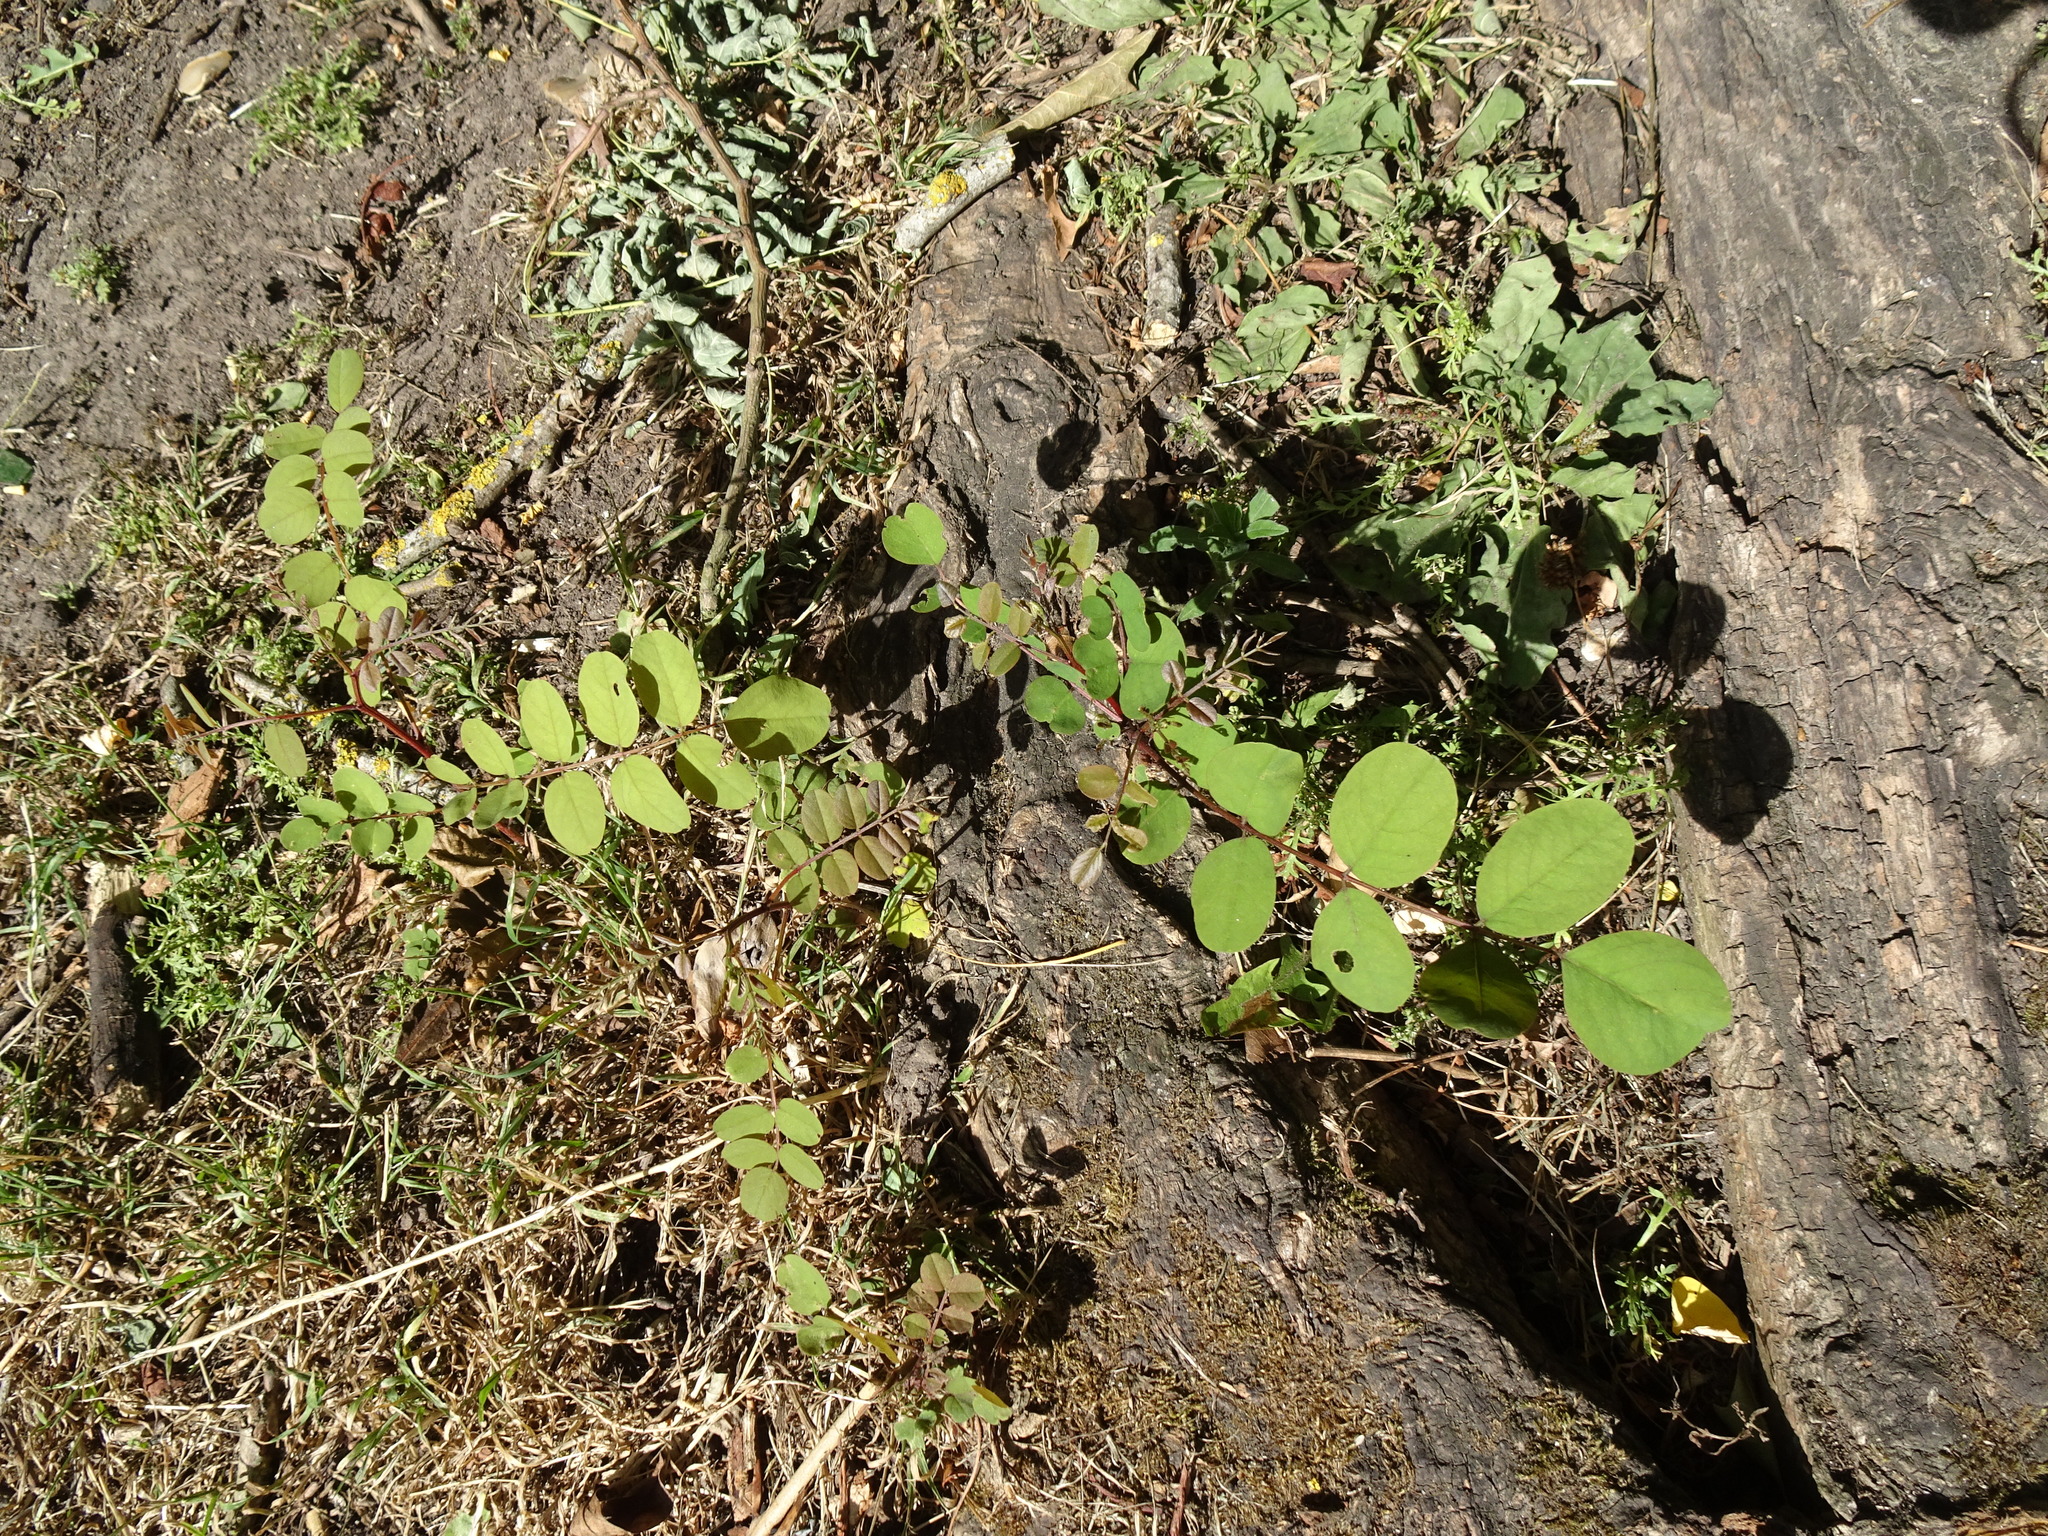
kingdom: Plantae
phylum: Tracheophyta
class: Magnoliopsida
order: Fabales
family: Fabaceae
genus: Robinia
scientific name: Robinia pseudoacacia
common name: Black locust
